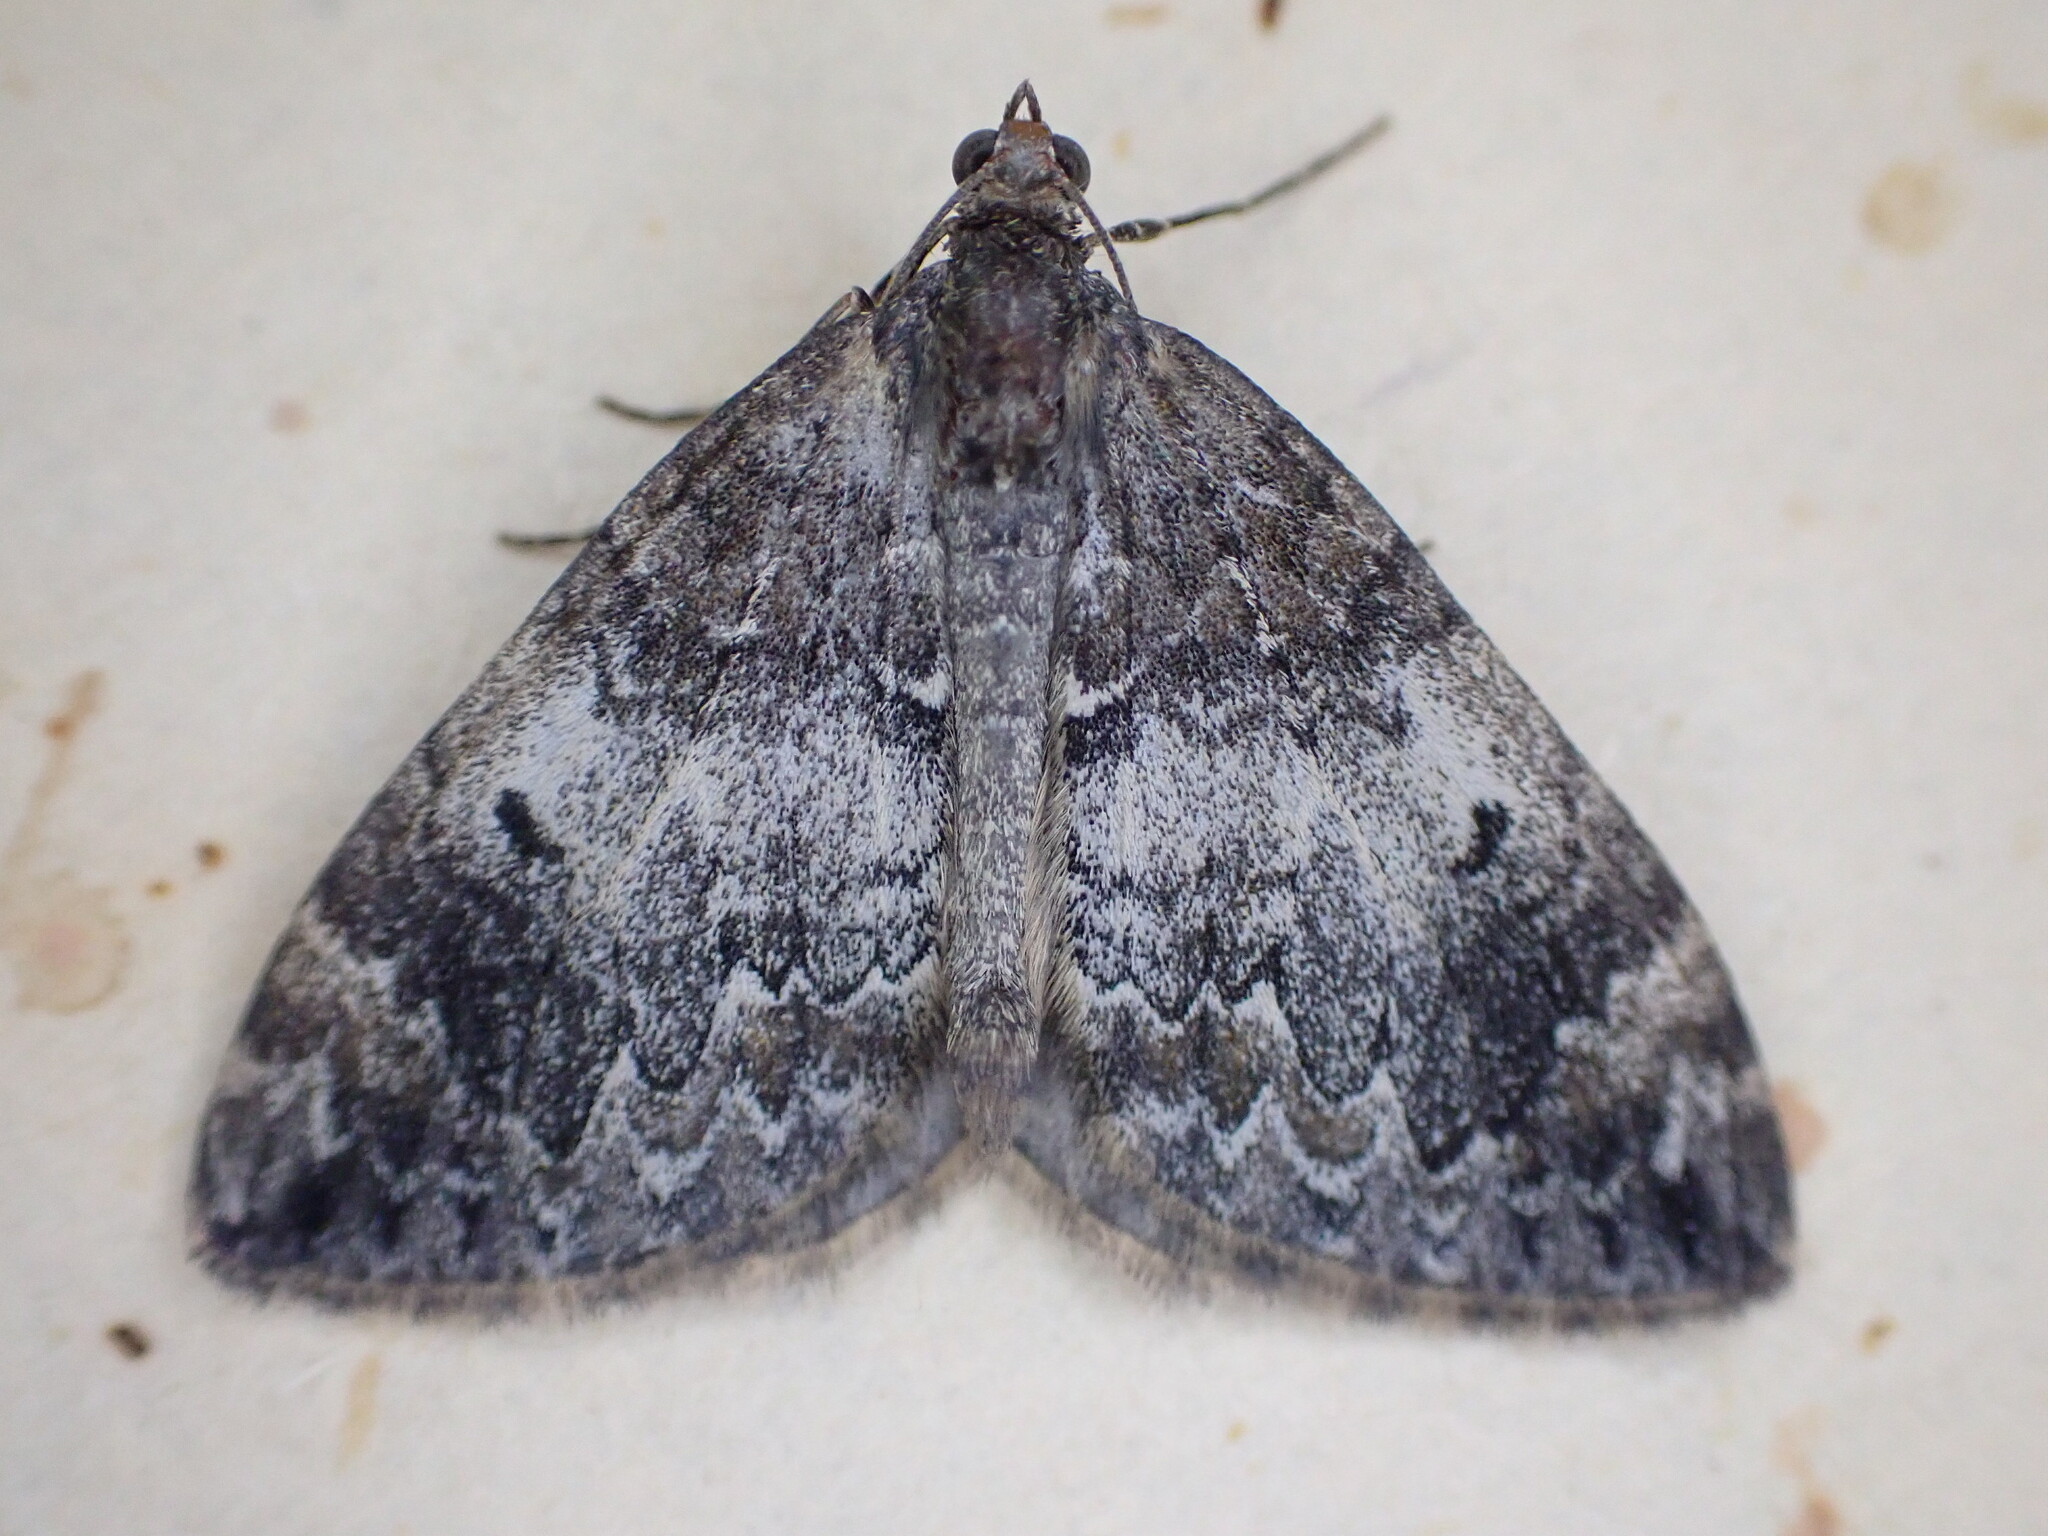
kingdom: Animalia
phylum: Arthropoda
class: Insecta
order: Lepidoptera
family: Geometridae
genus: Dysstroma
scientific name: Dysstroma truncata
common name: Common marbled carpet
